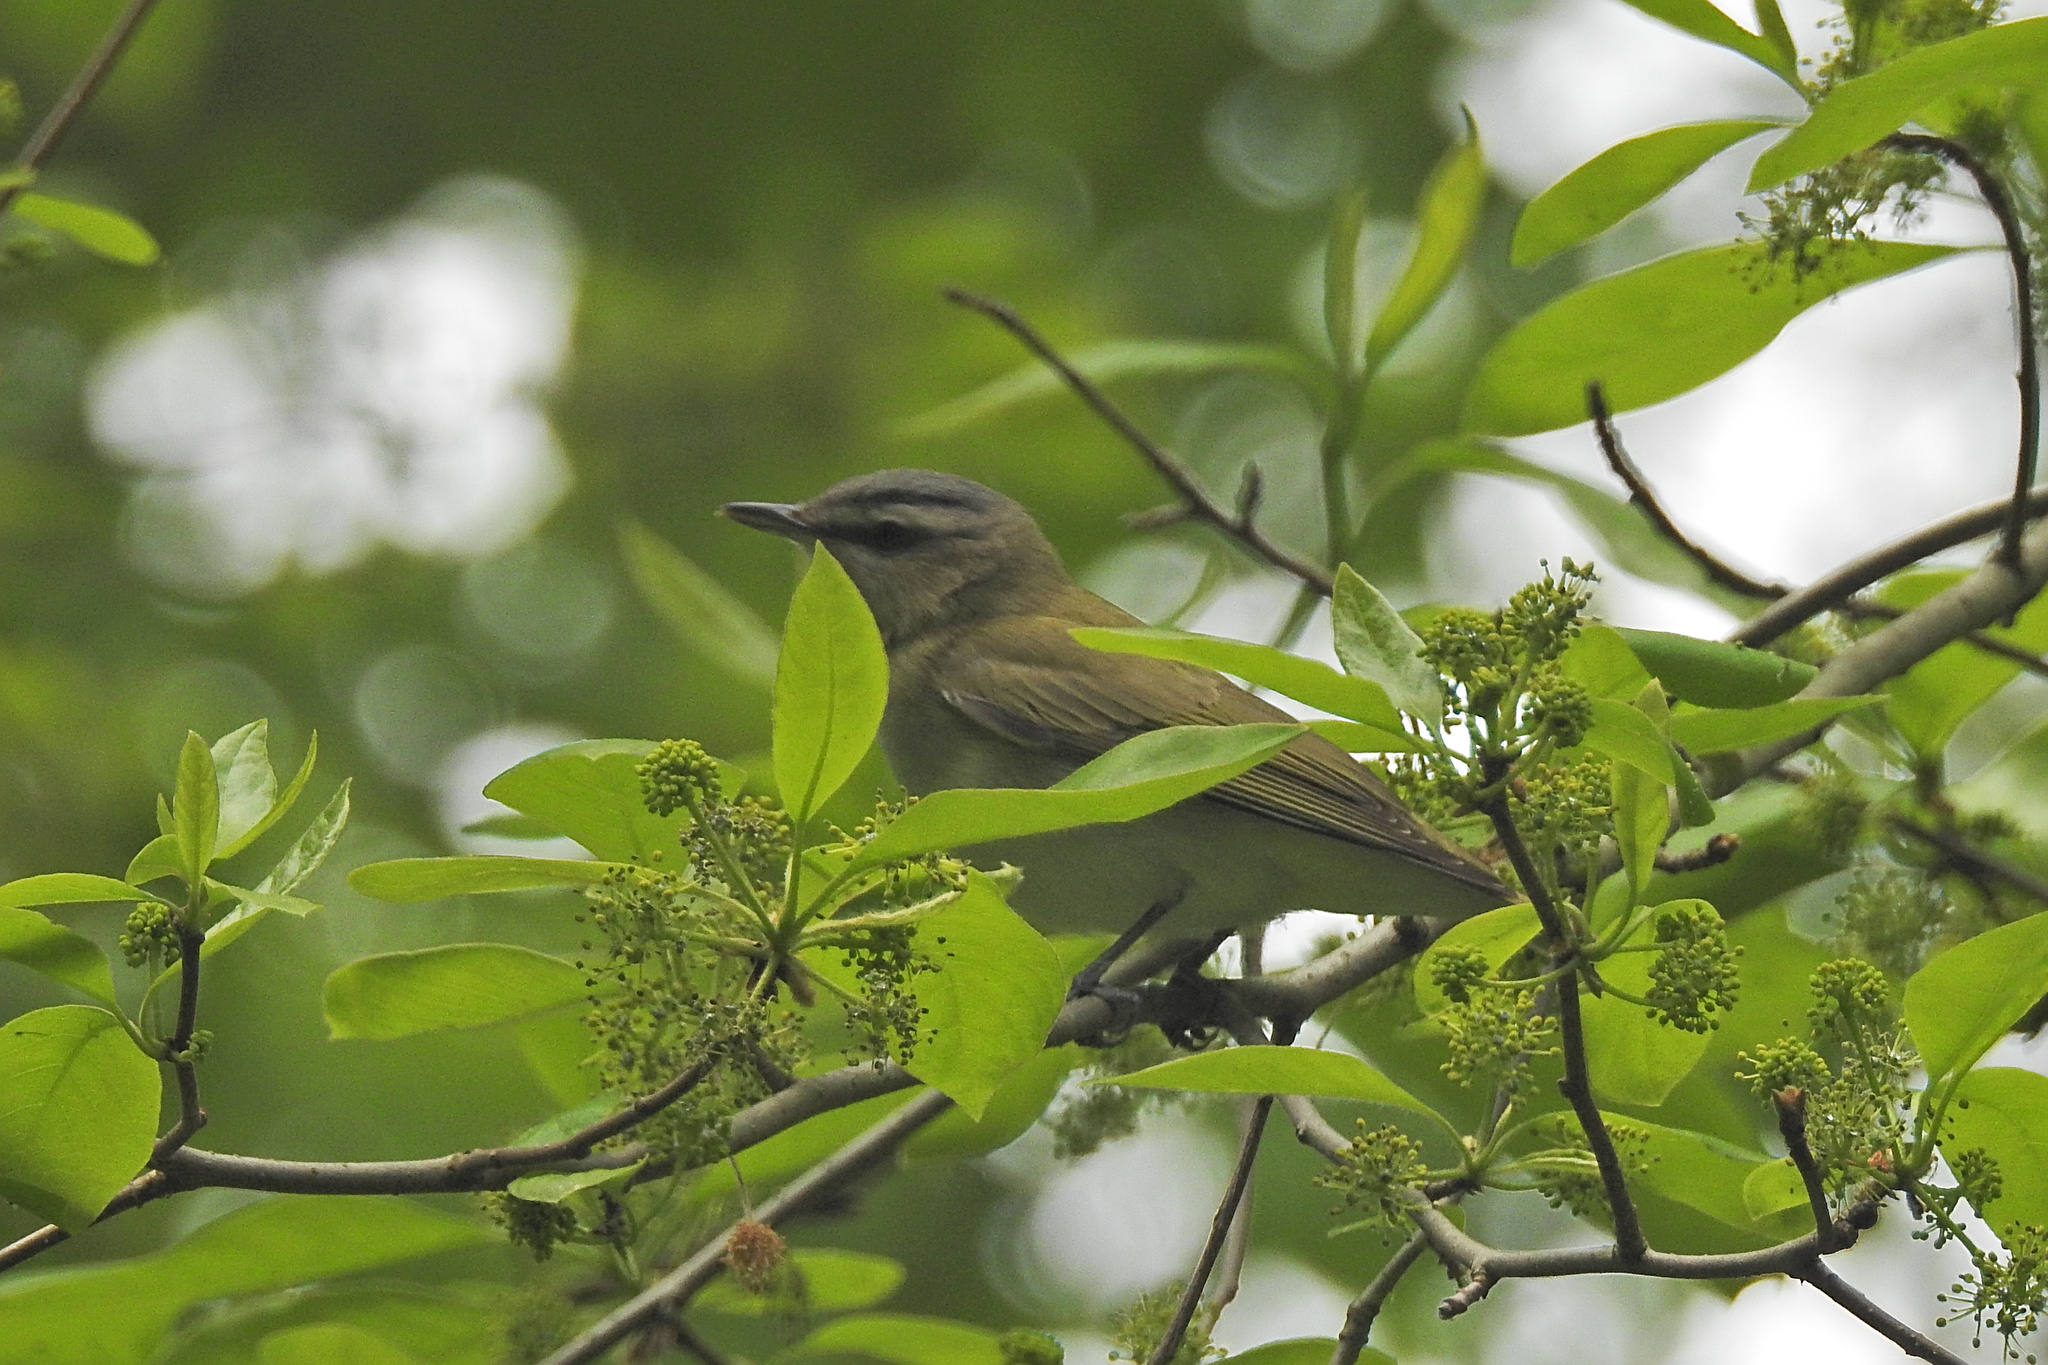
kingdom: Animalia
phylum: Chordata
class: Aves
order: Passeriformes
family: Vireonidae
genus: Vireo
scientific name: Vireo olivaceus
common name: Red-eyed vireo
